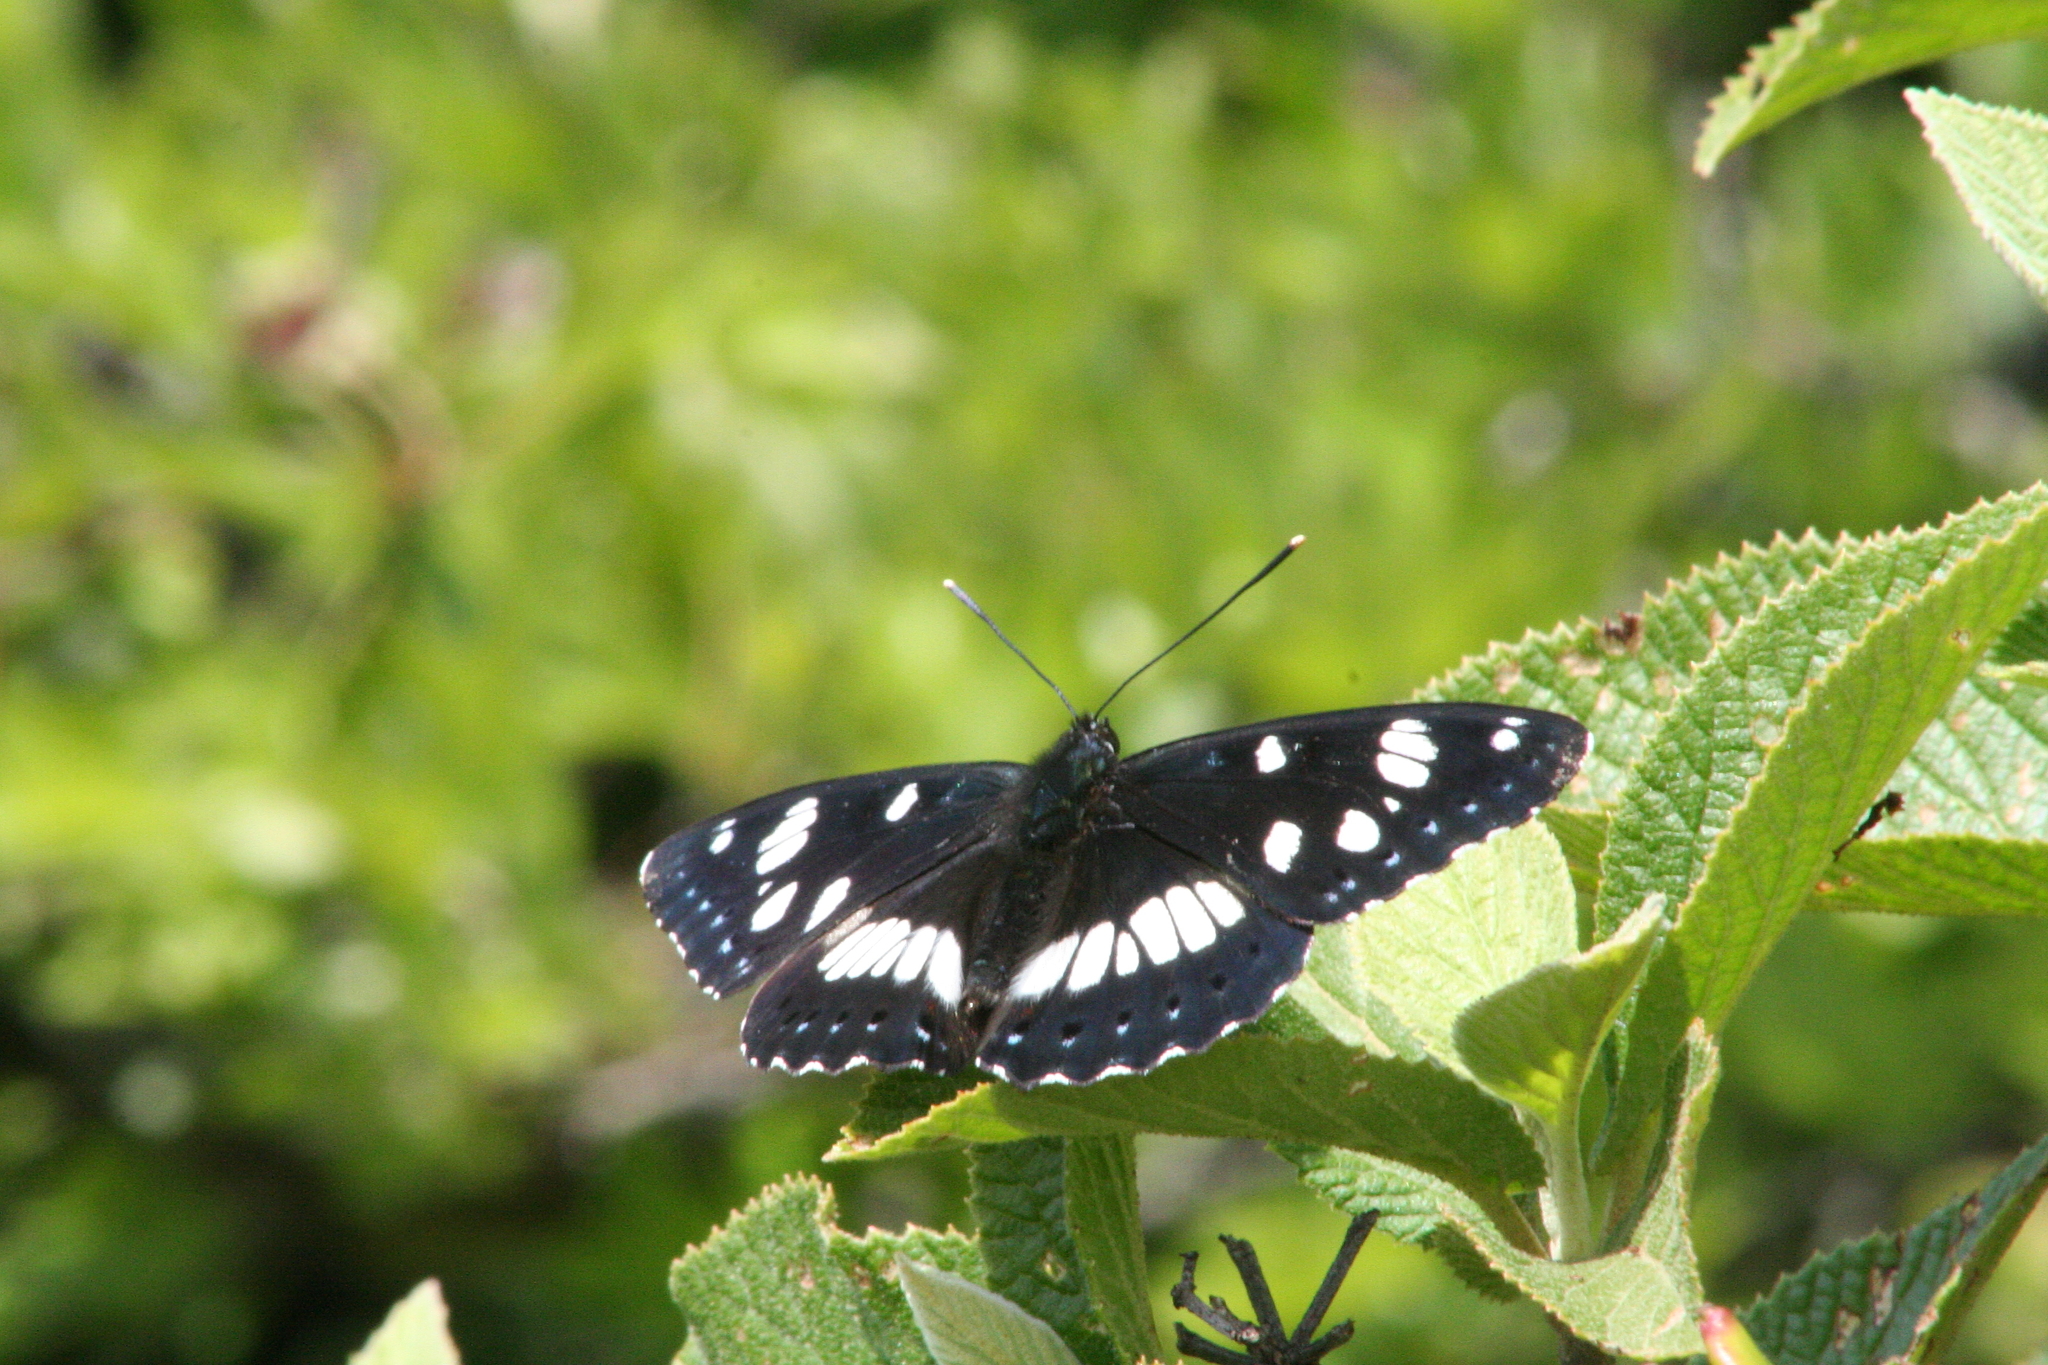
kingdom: Animalia
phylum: Arthropoda
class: Insecta
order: Lepidoptera
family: Nymphalidae
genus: Limenitis
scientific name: Limenitis reducta
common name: Southern white admiral
